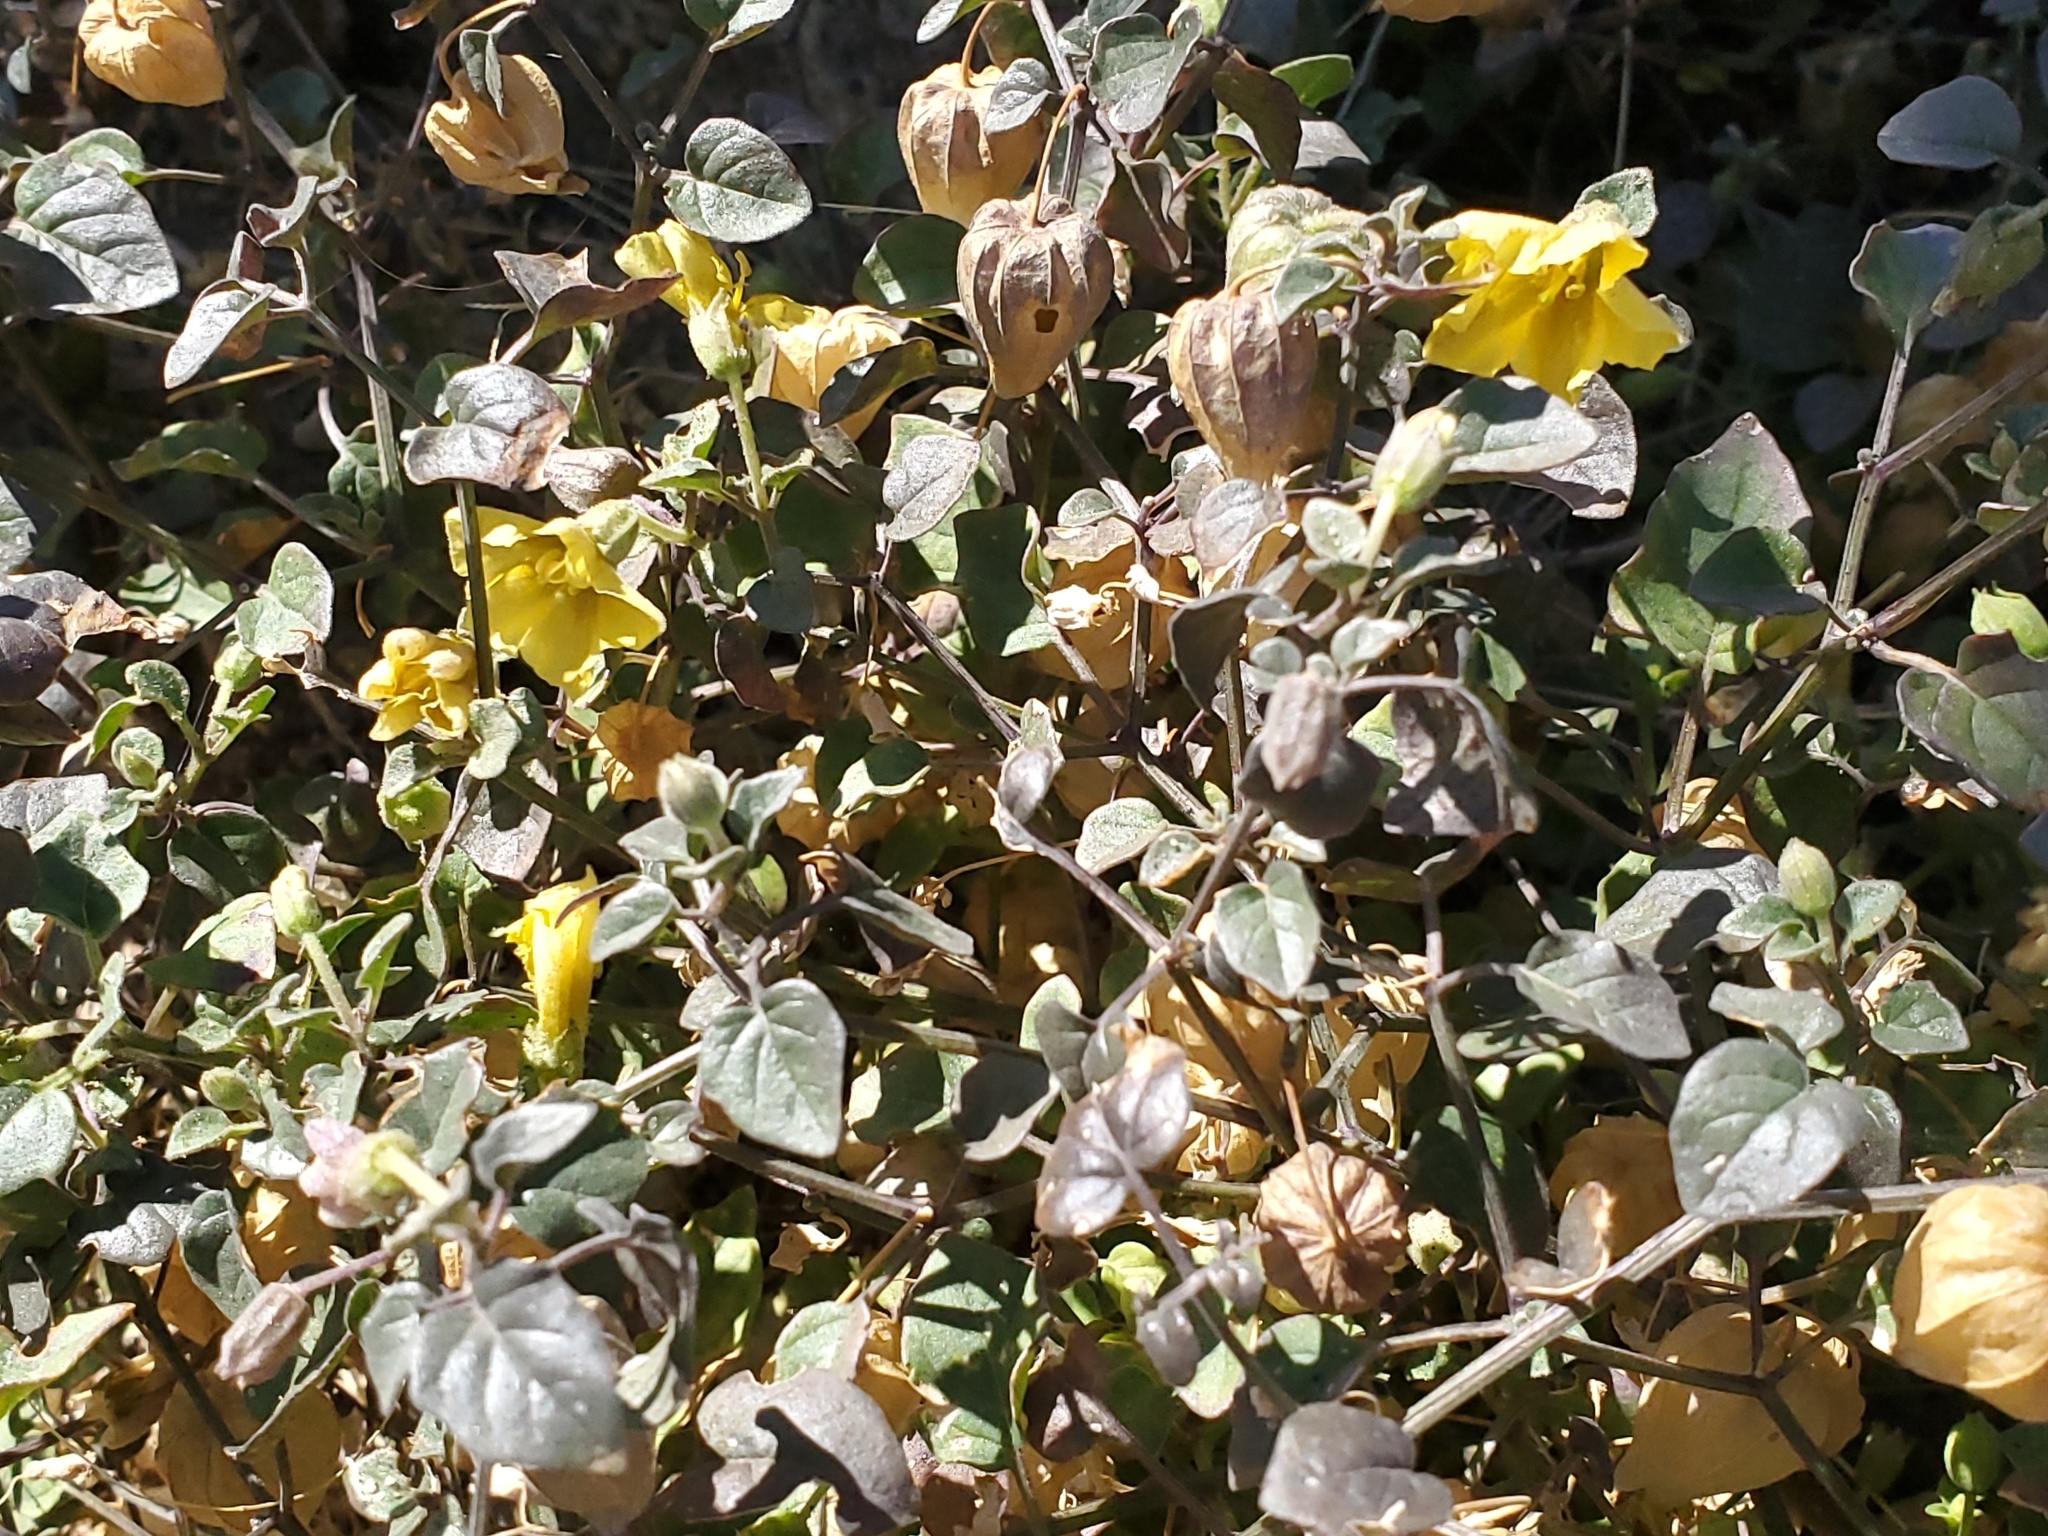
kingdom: Plantae
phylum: Tracheophyta
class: Magnoliopsida
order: Solanales
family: Solanaceae
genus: Physalis
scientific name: Physalis crassifolia
